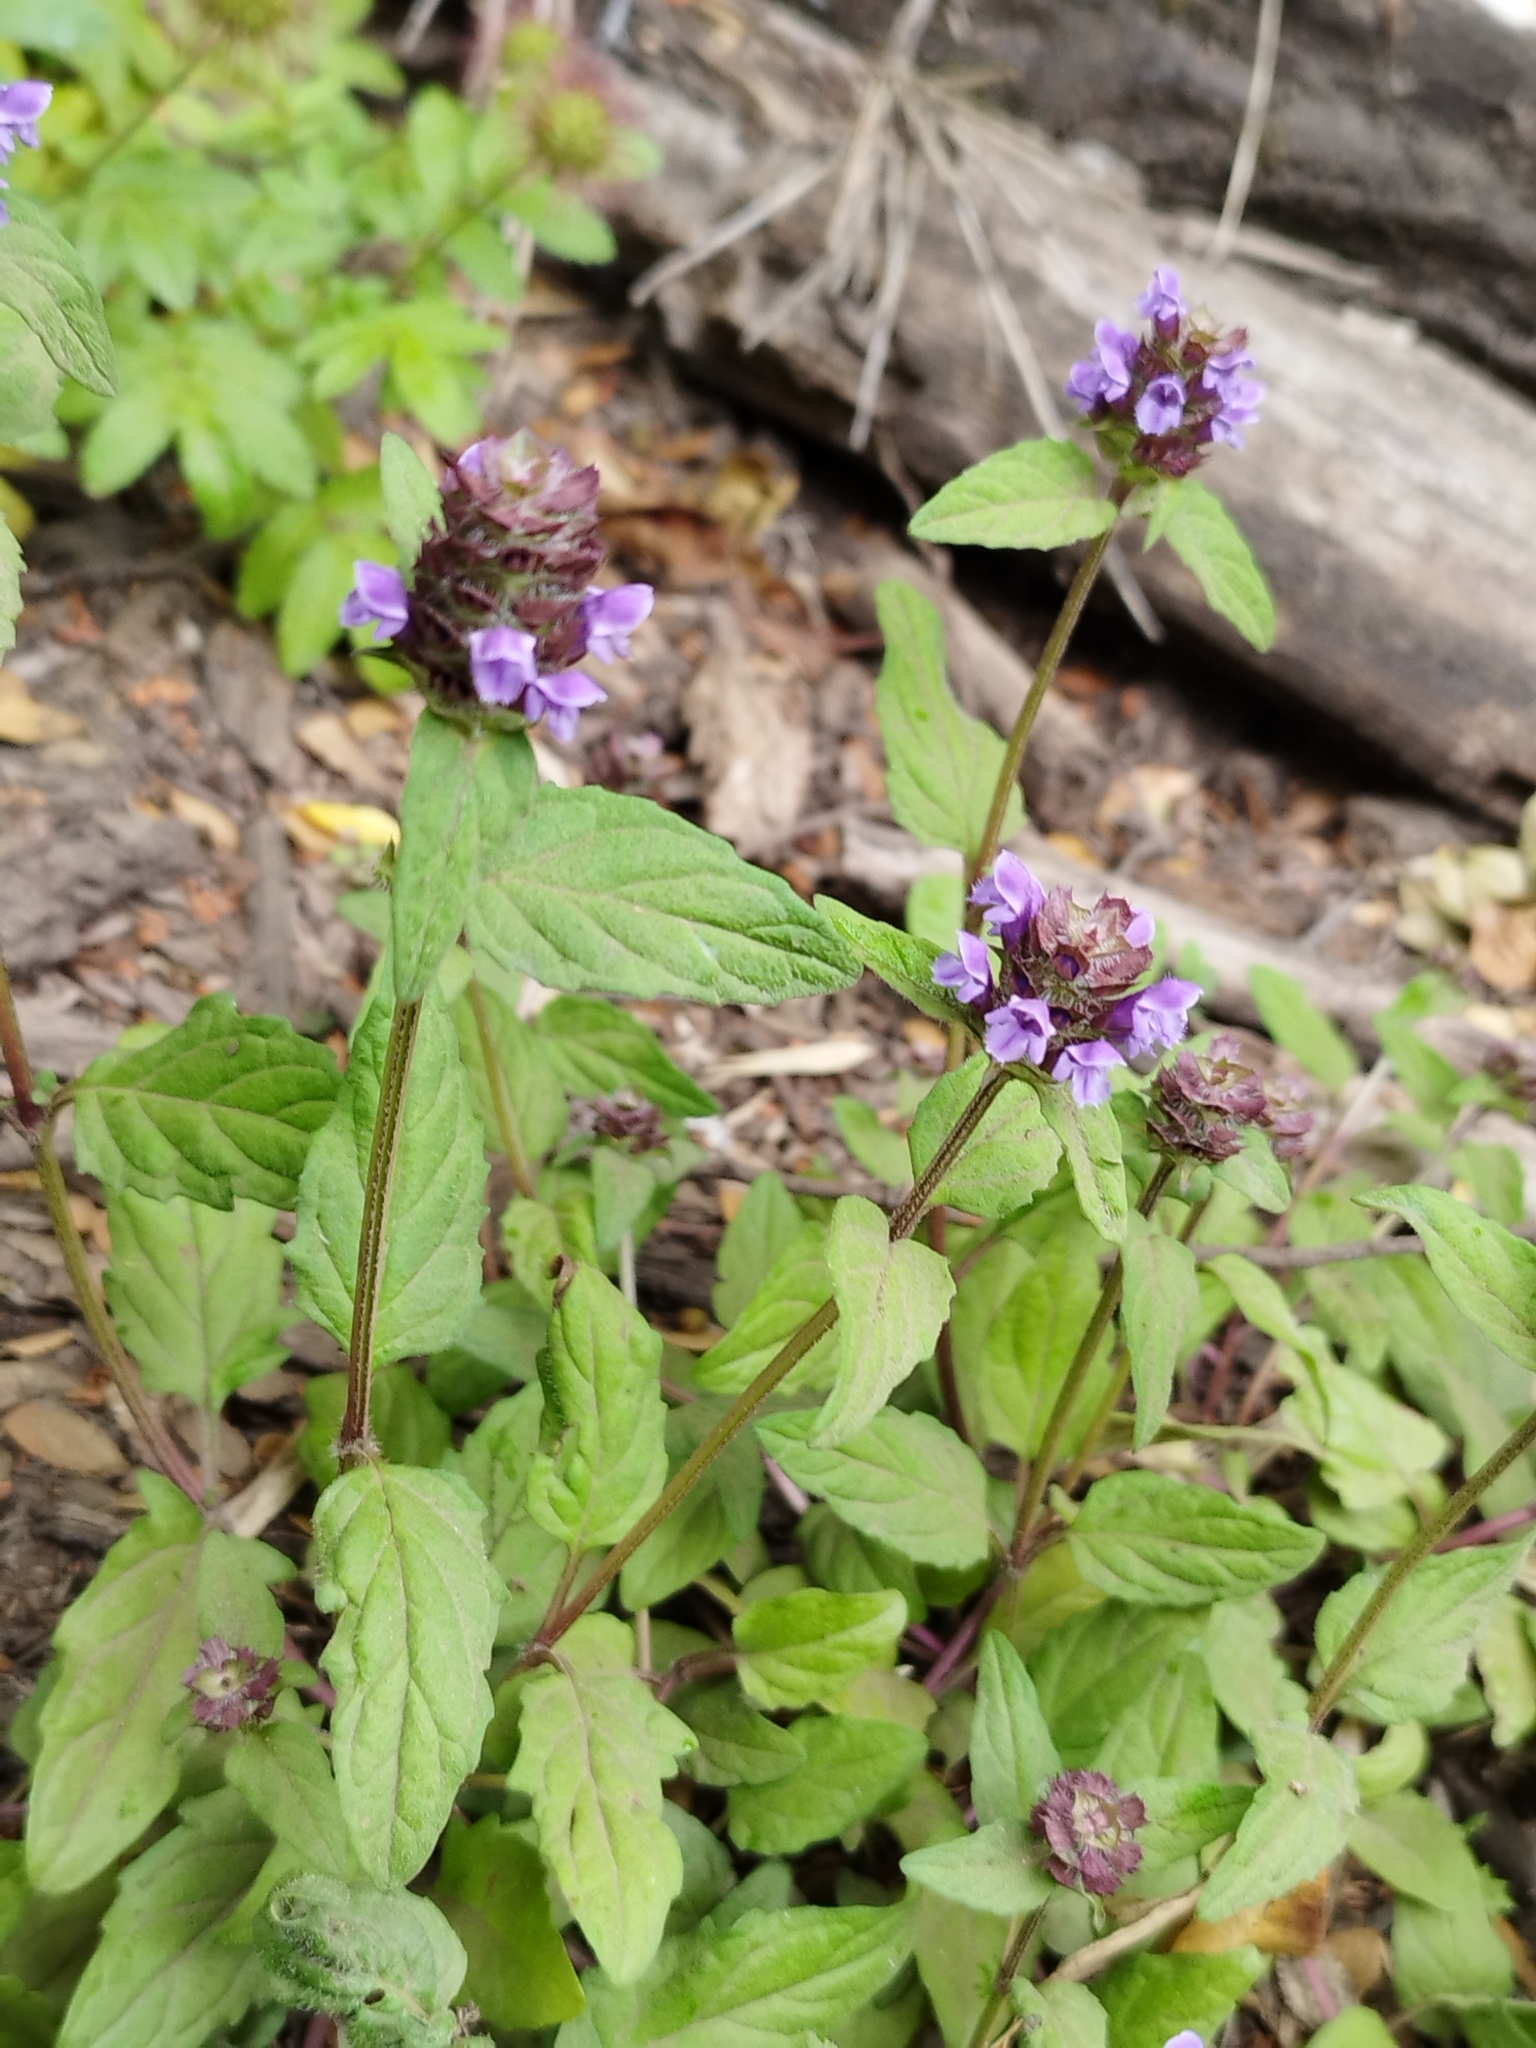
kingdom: Plantae
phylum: Tracheophyta
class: Magnoliopsida
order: Lamiales
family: Lamiaceae
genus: Prunella
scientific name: Prunella vulgaris
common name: Heal-all
